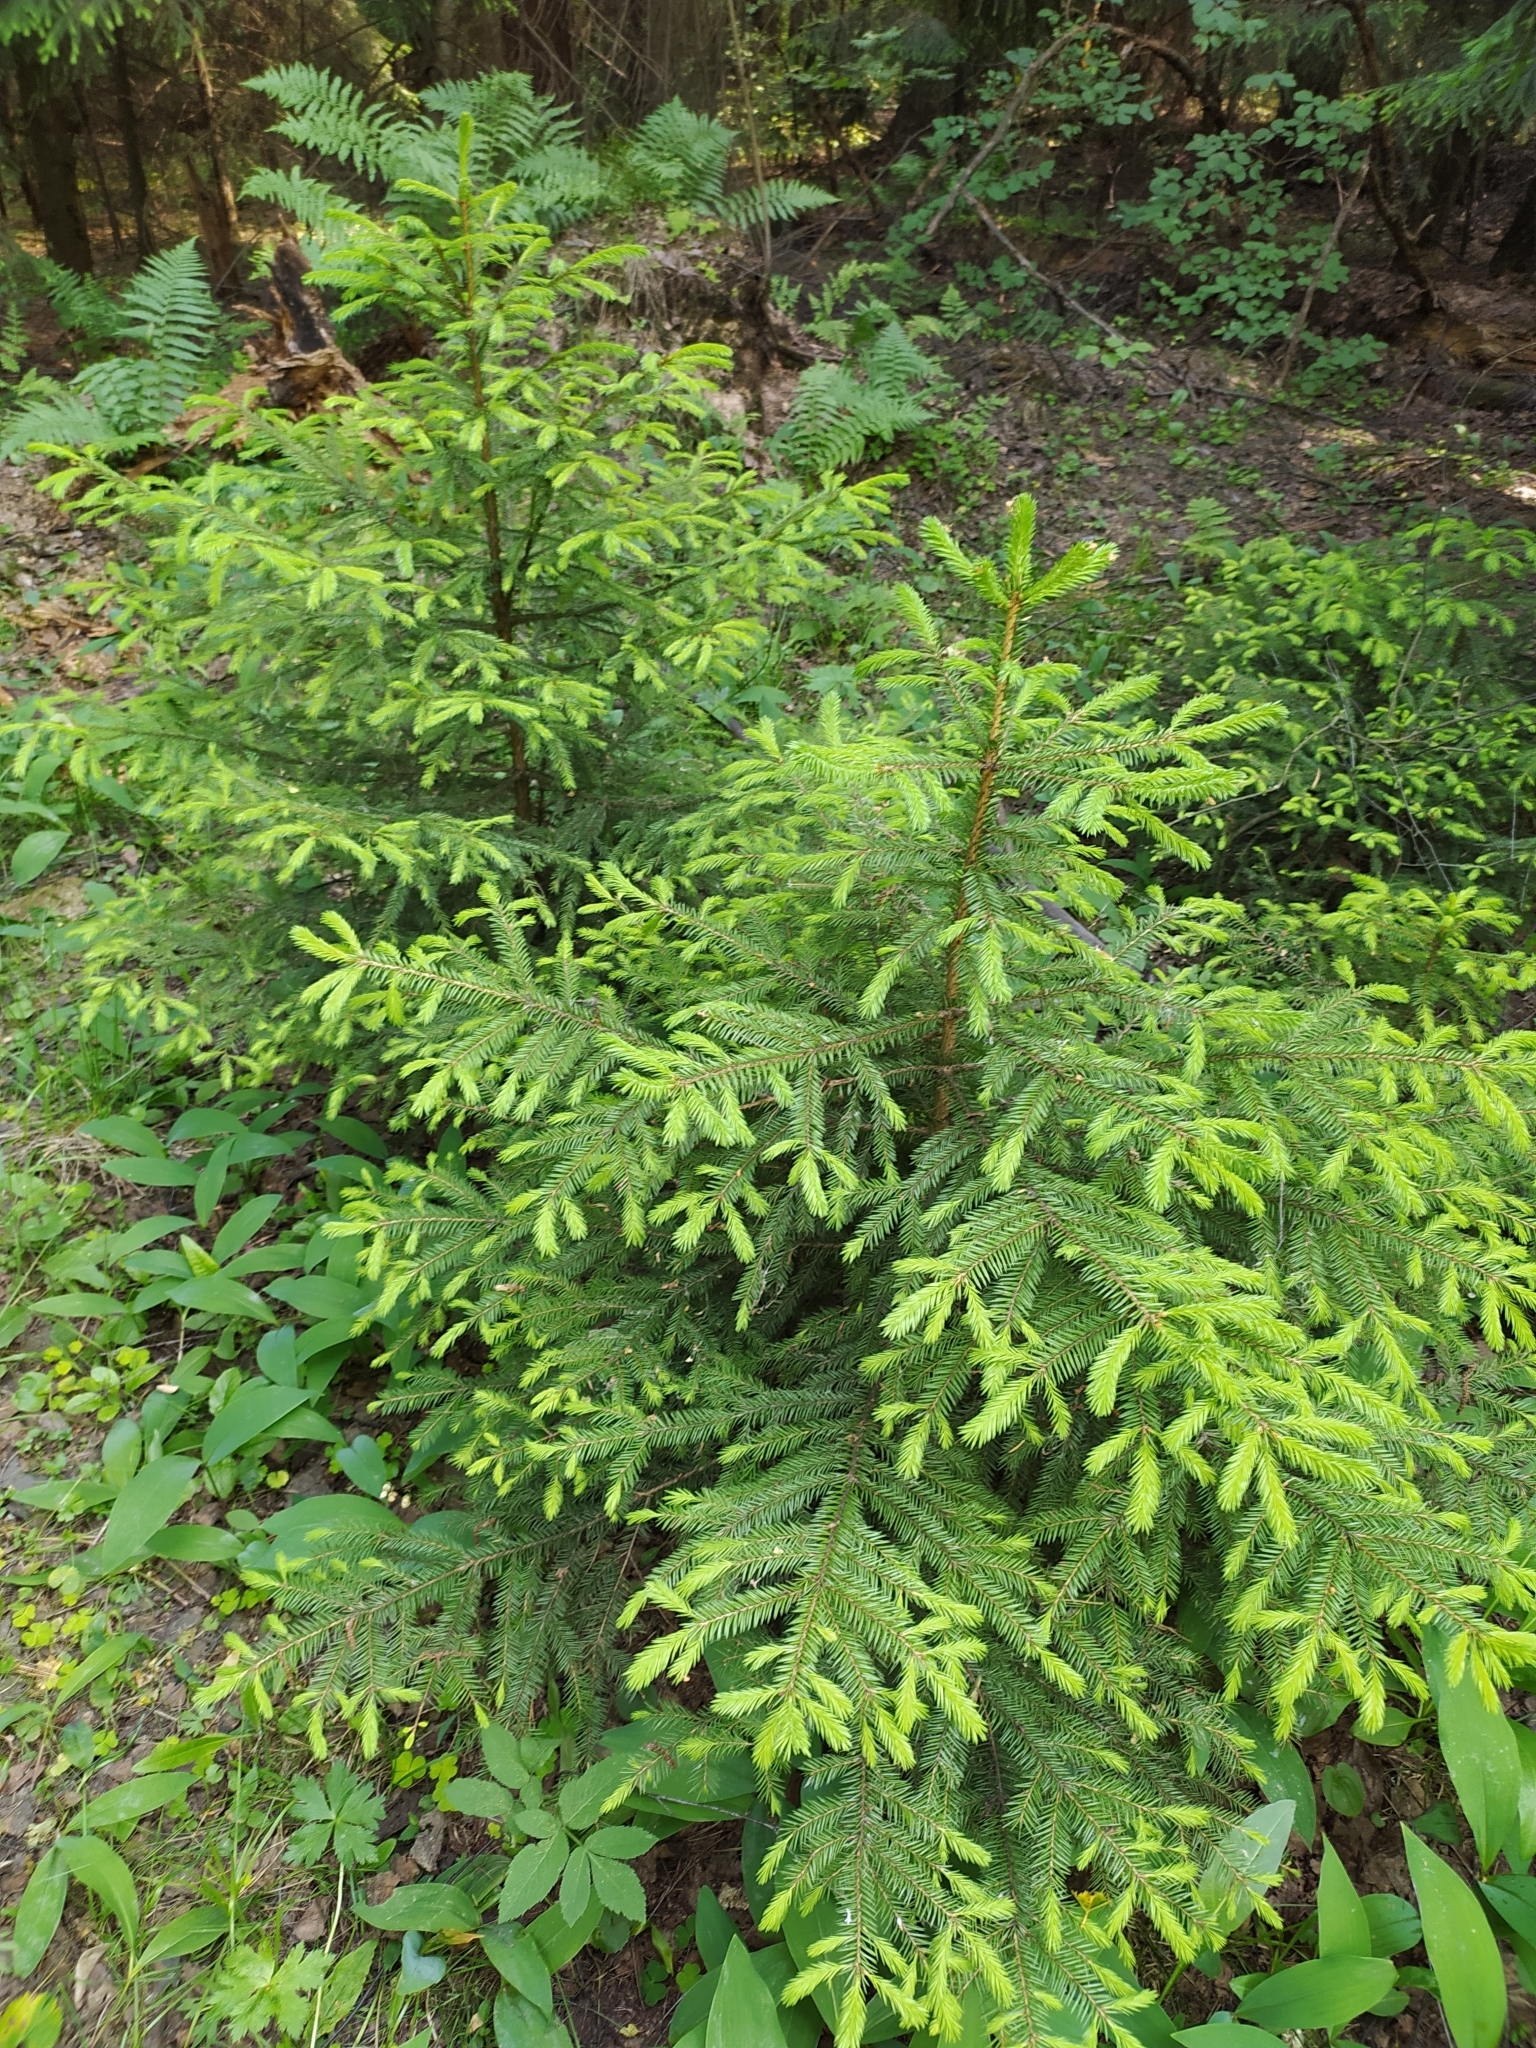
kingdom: Plantae
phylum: Tracheophyta
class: Pinopsida
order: Pinales
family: Pinaceae
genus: Picea
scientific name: Picea abies
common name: Norway spruce
